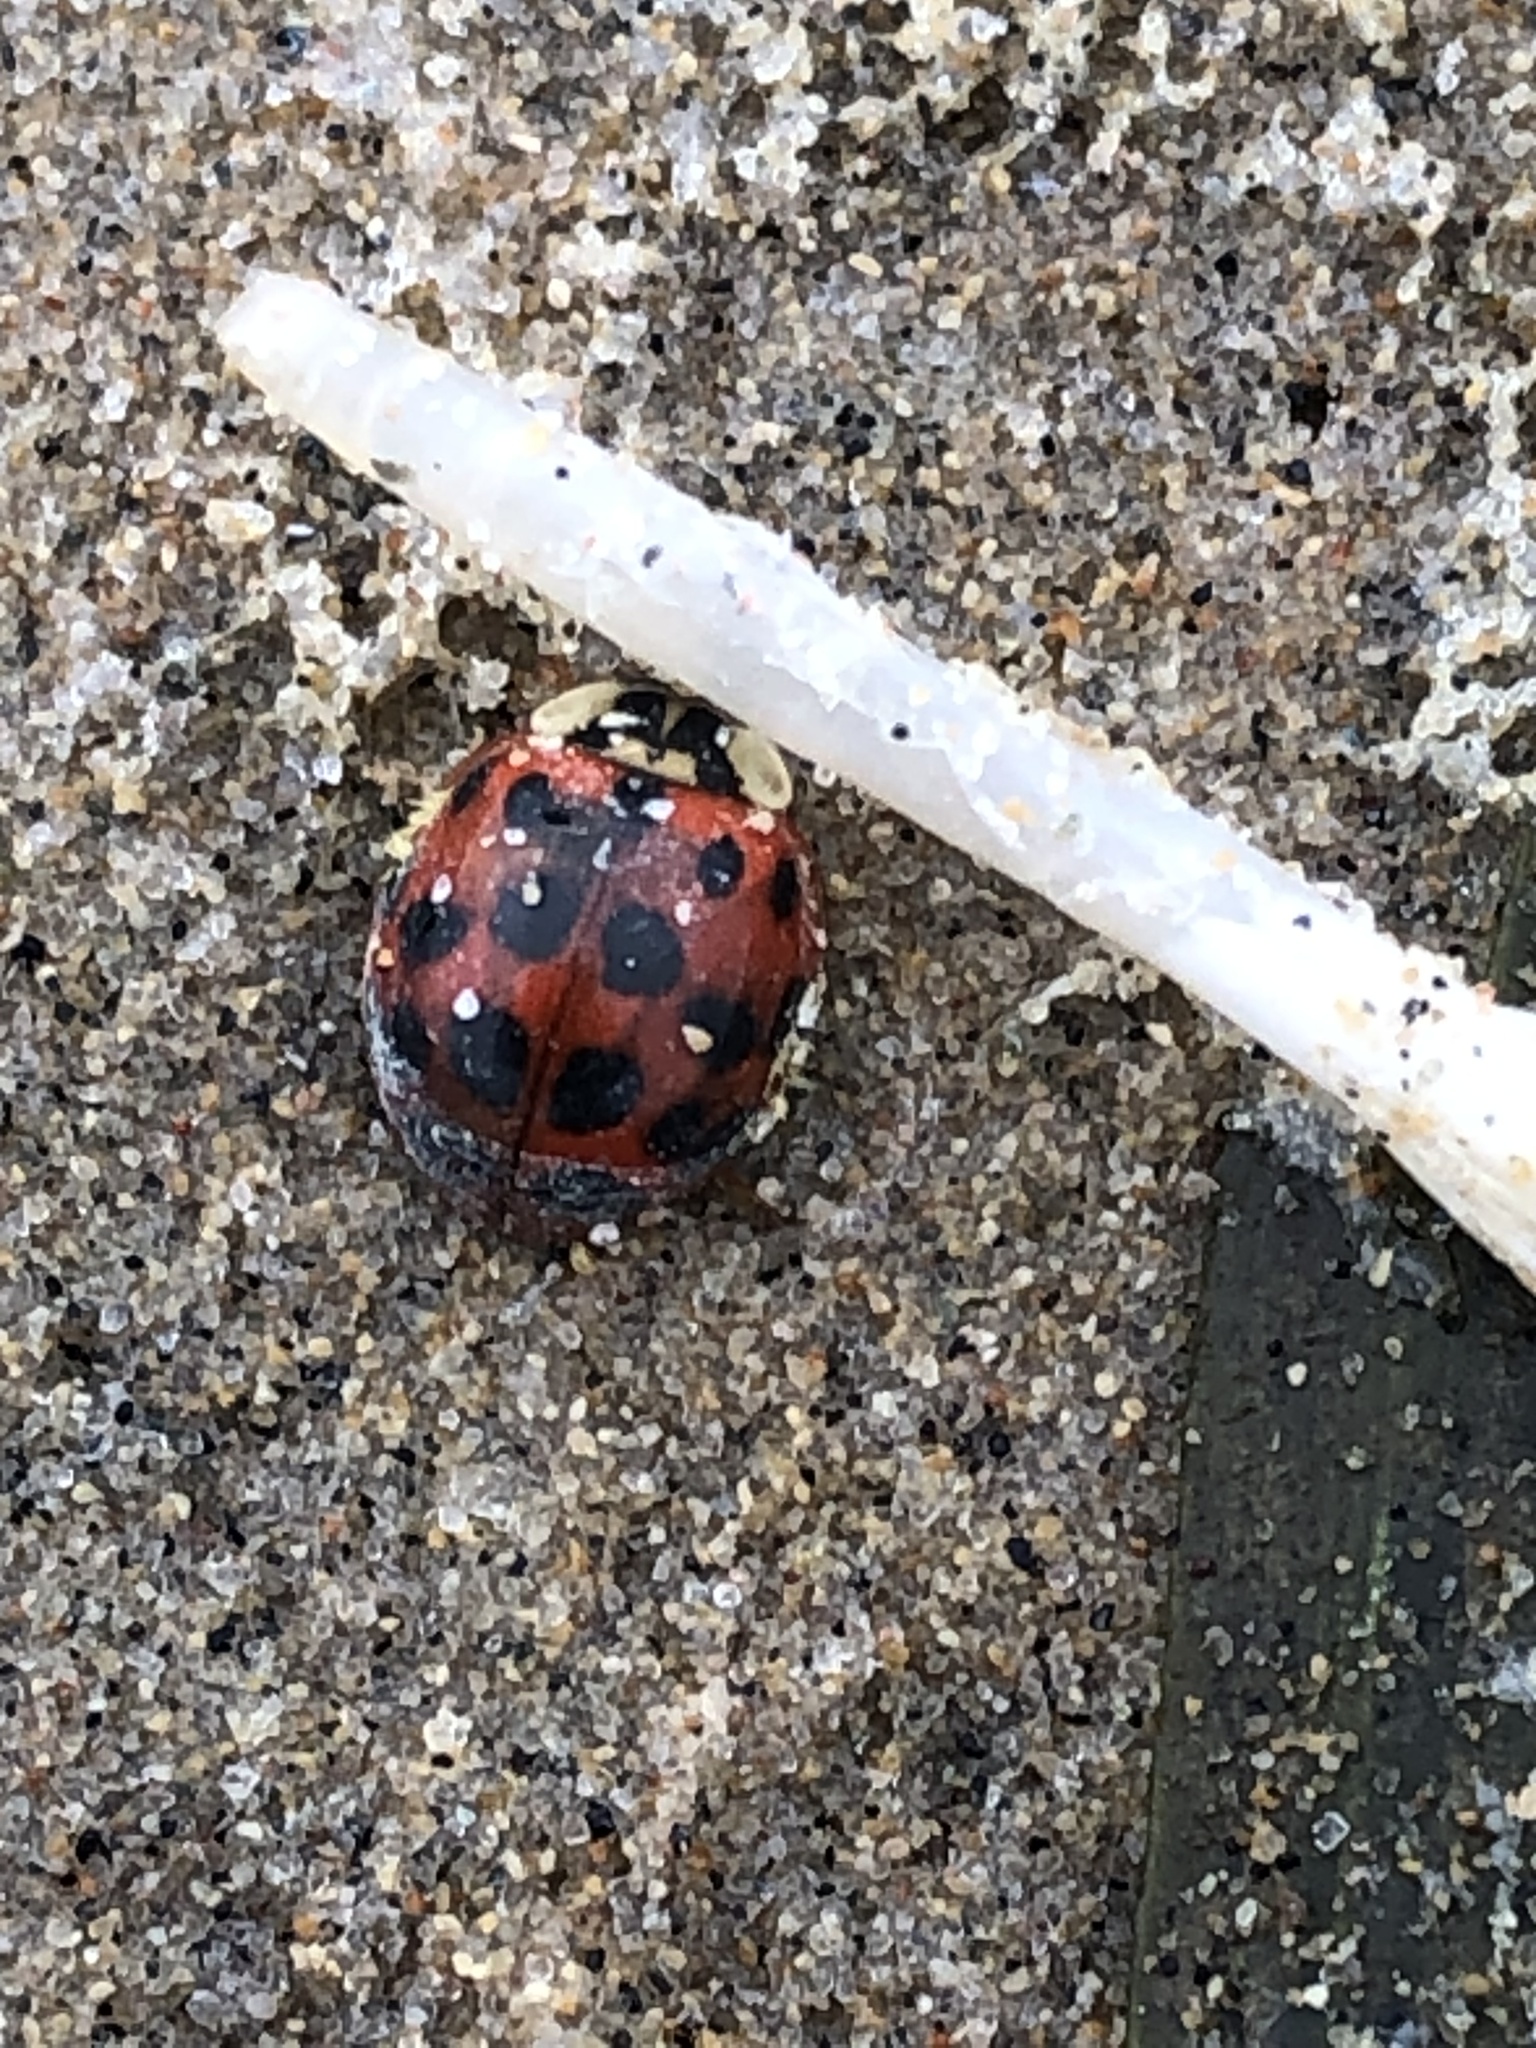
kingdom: Animalia
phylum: Arthropoda
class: Insecta
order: Coleoptera
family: Coccinellidae
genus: Harmonia
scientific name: Harmonia axyridis
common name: Harlequin ladybird
